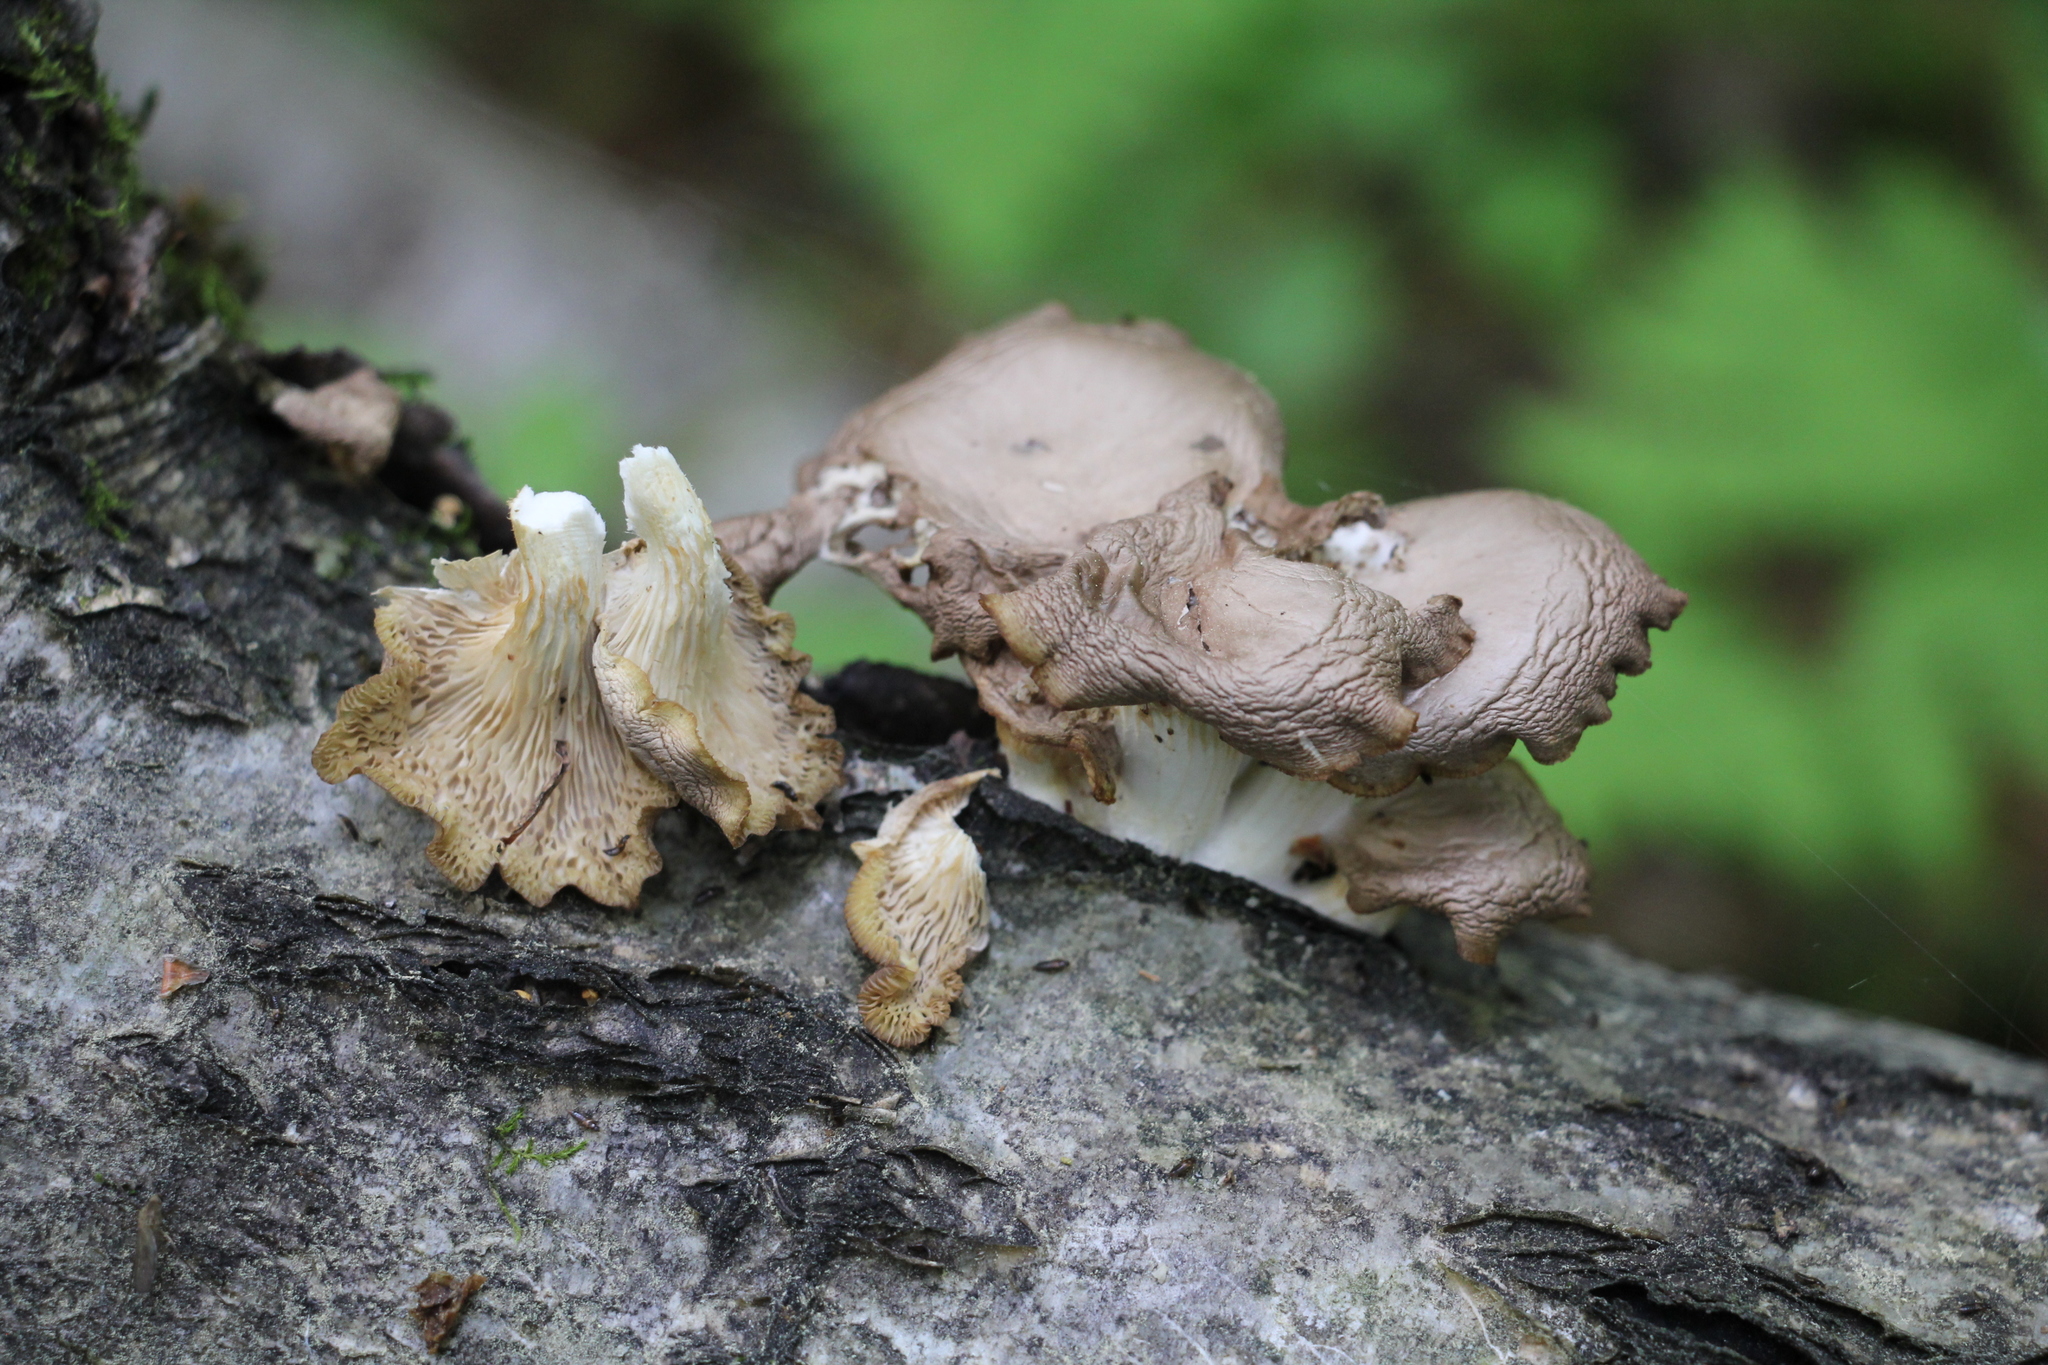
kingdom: Fungi
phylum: Basidiomycota
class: Agaricomycetes
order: Agaricales
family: Pleurotaceae
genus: Pleurotus
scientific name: Pleurotus pulmonarius
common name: Pale oyster
